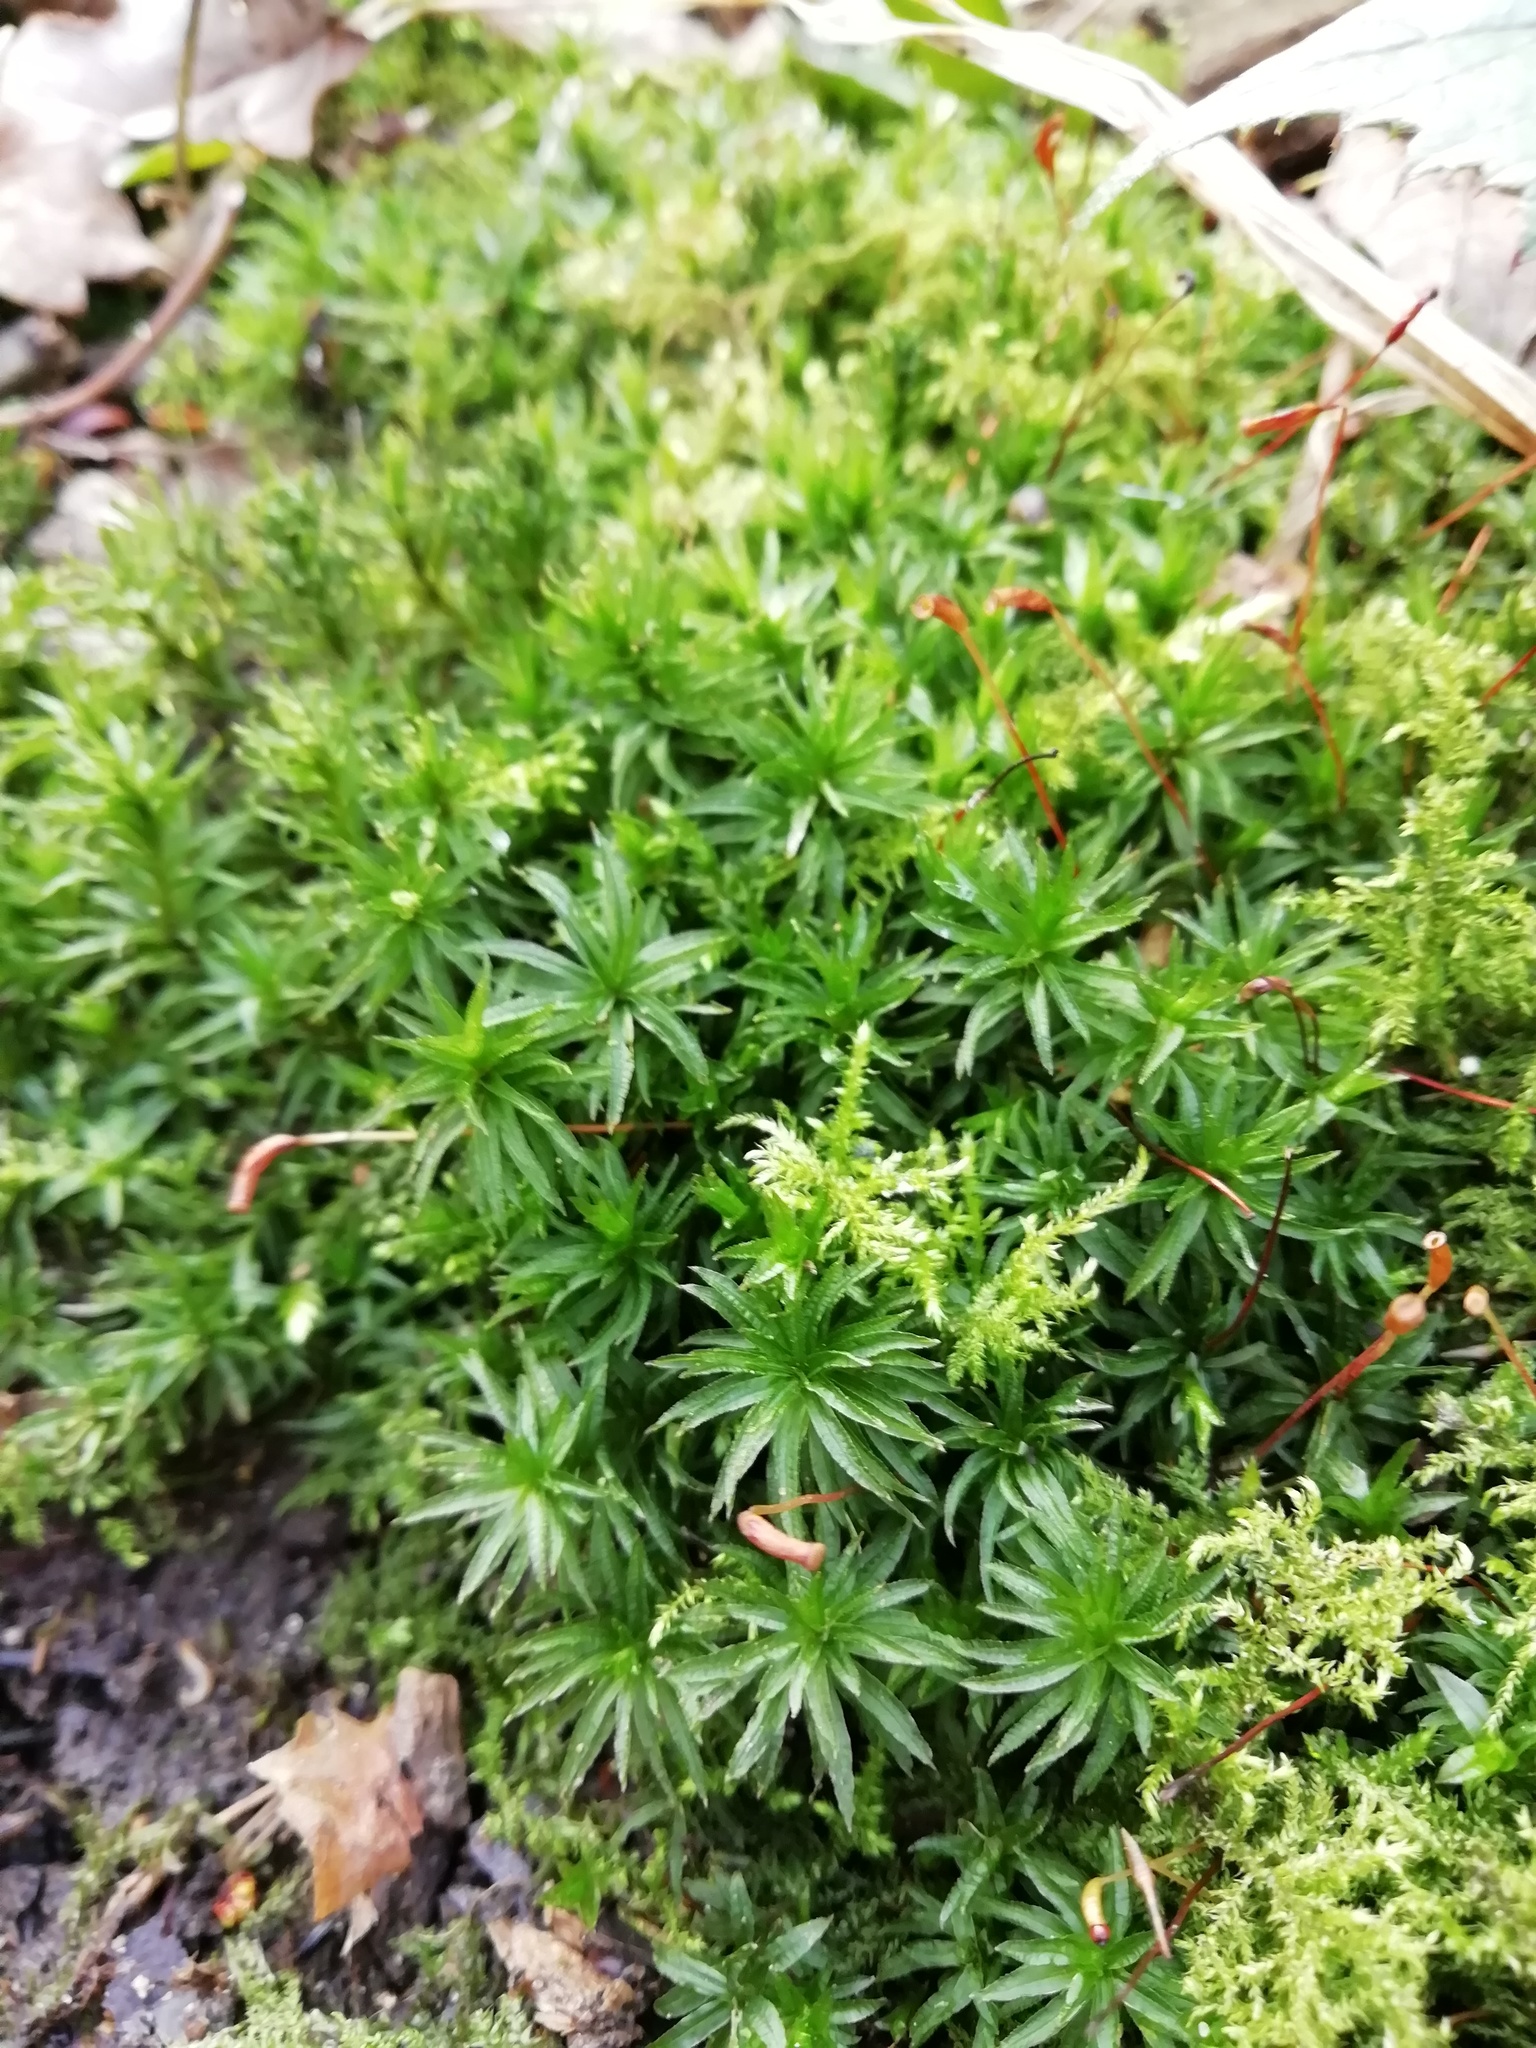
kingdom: Plantae
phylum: Bryophyta
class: Polytrichopsida
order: Polytrichales
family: Polytrichaceae
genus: Atrichum
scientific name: Atrichum undulatum
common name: Common smoothcap
